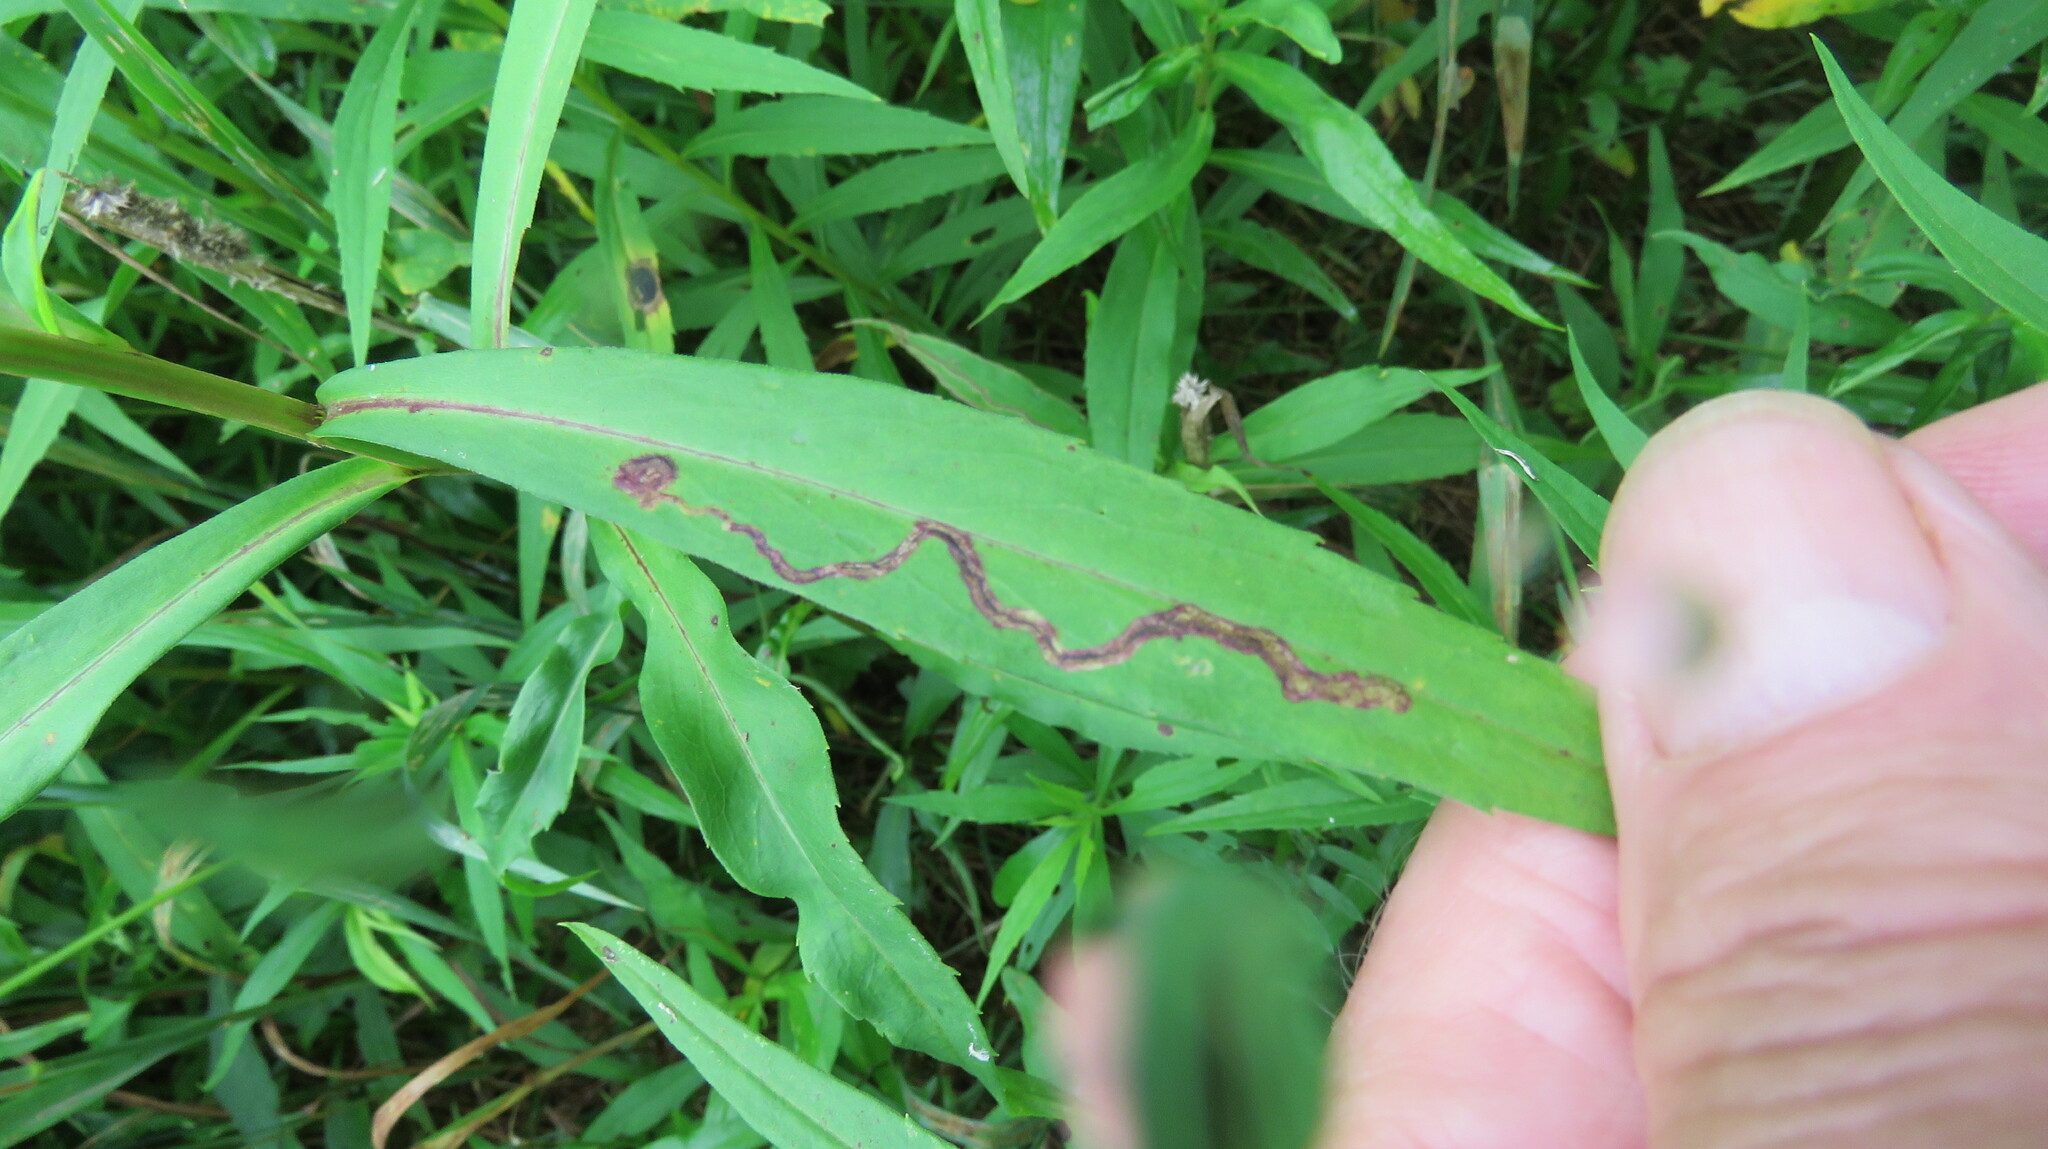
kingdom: Animalia
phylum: Arthropoda
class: Insecta
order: Diptera
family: Agromyzidae
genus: Liriomyza
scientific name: Liriomyza eupatorii
